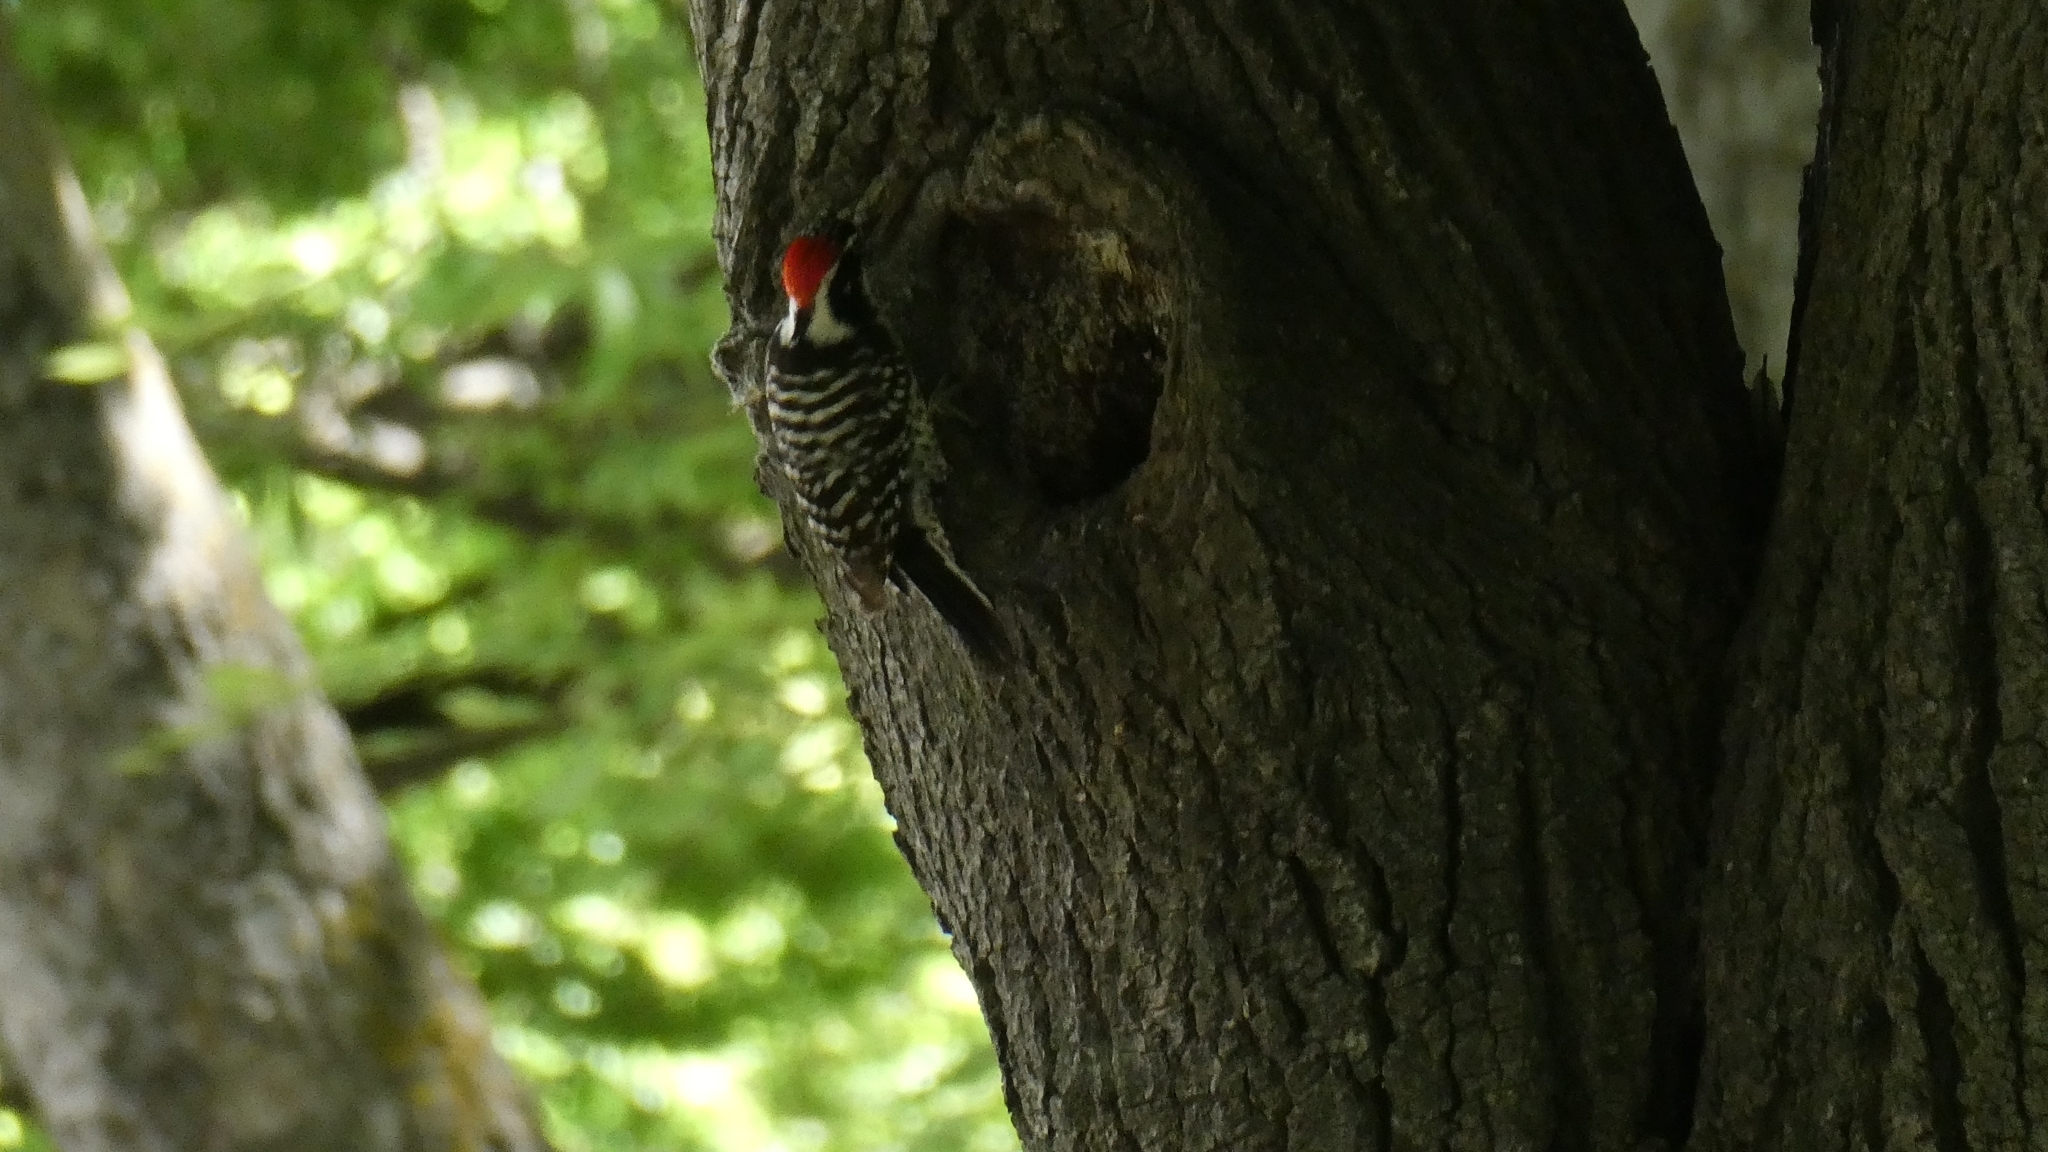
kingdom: Animalia
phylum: Chordata
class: Aves
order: Piciformes
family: Picidae
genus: Dryobates
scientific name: Dryobates nuttallii
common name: Nuttall's woodpecker
